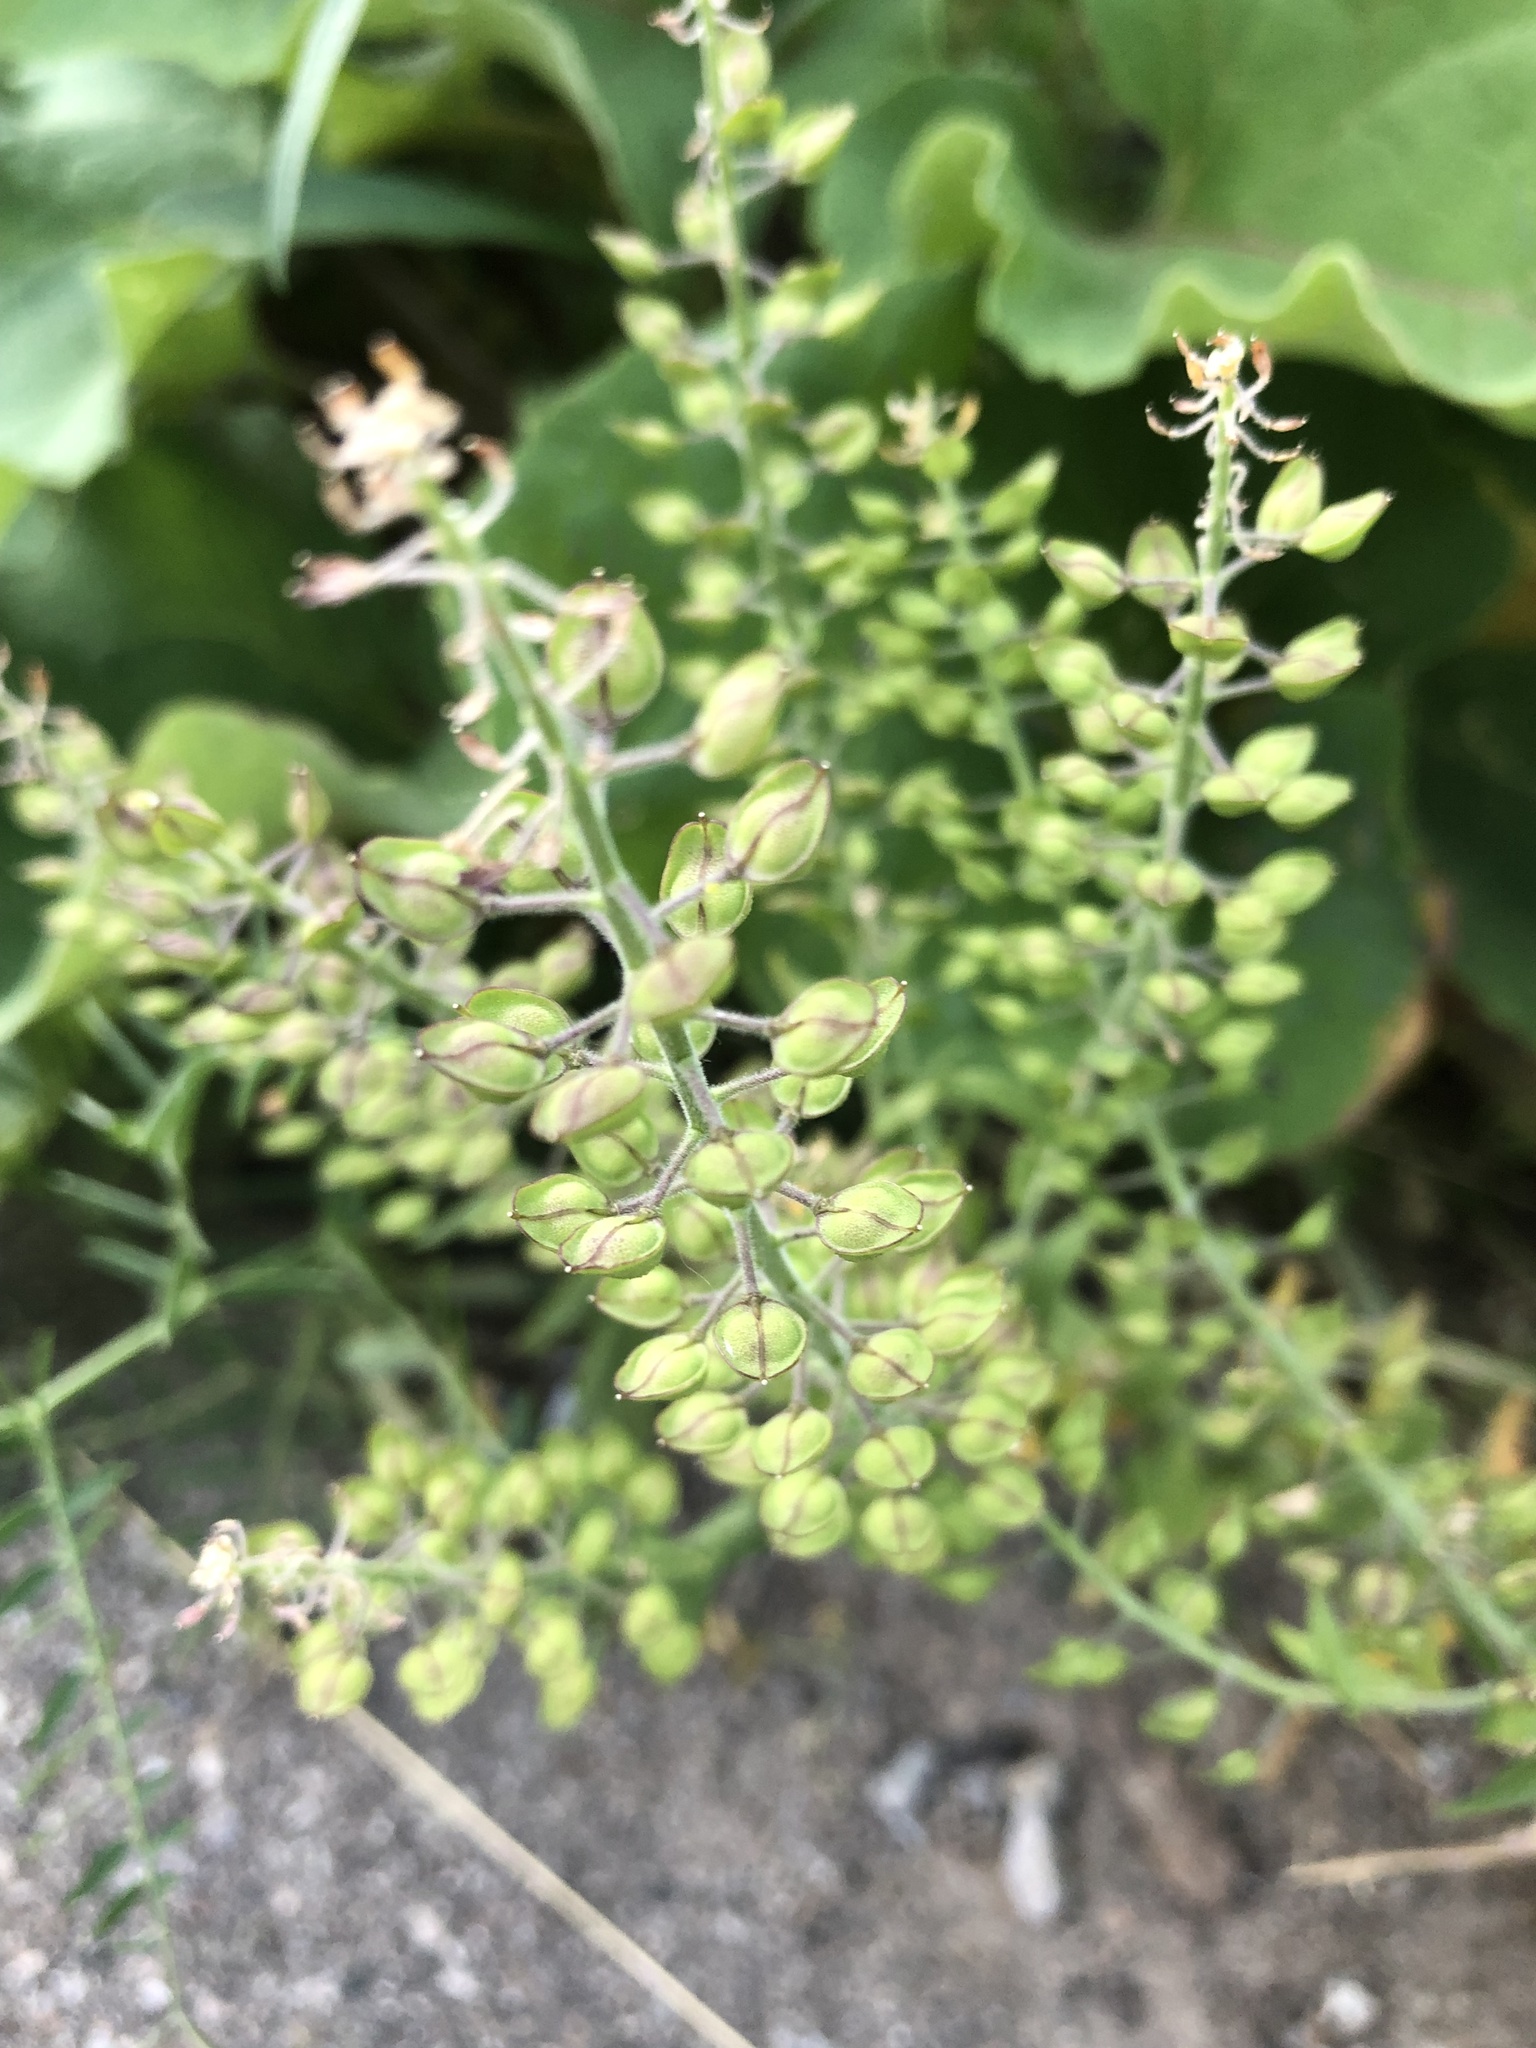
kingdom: Plantae
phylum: Tracheophyta
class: Magnoliopsida
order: Brassicales
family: Brassicaceae
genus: Lepidium
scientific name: Lepidium campestre
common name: Field pepperwort
